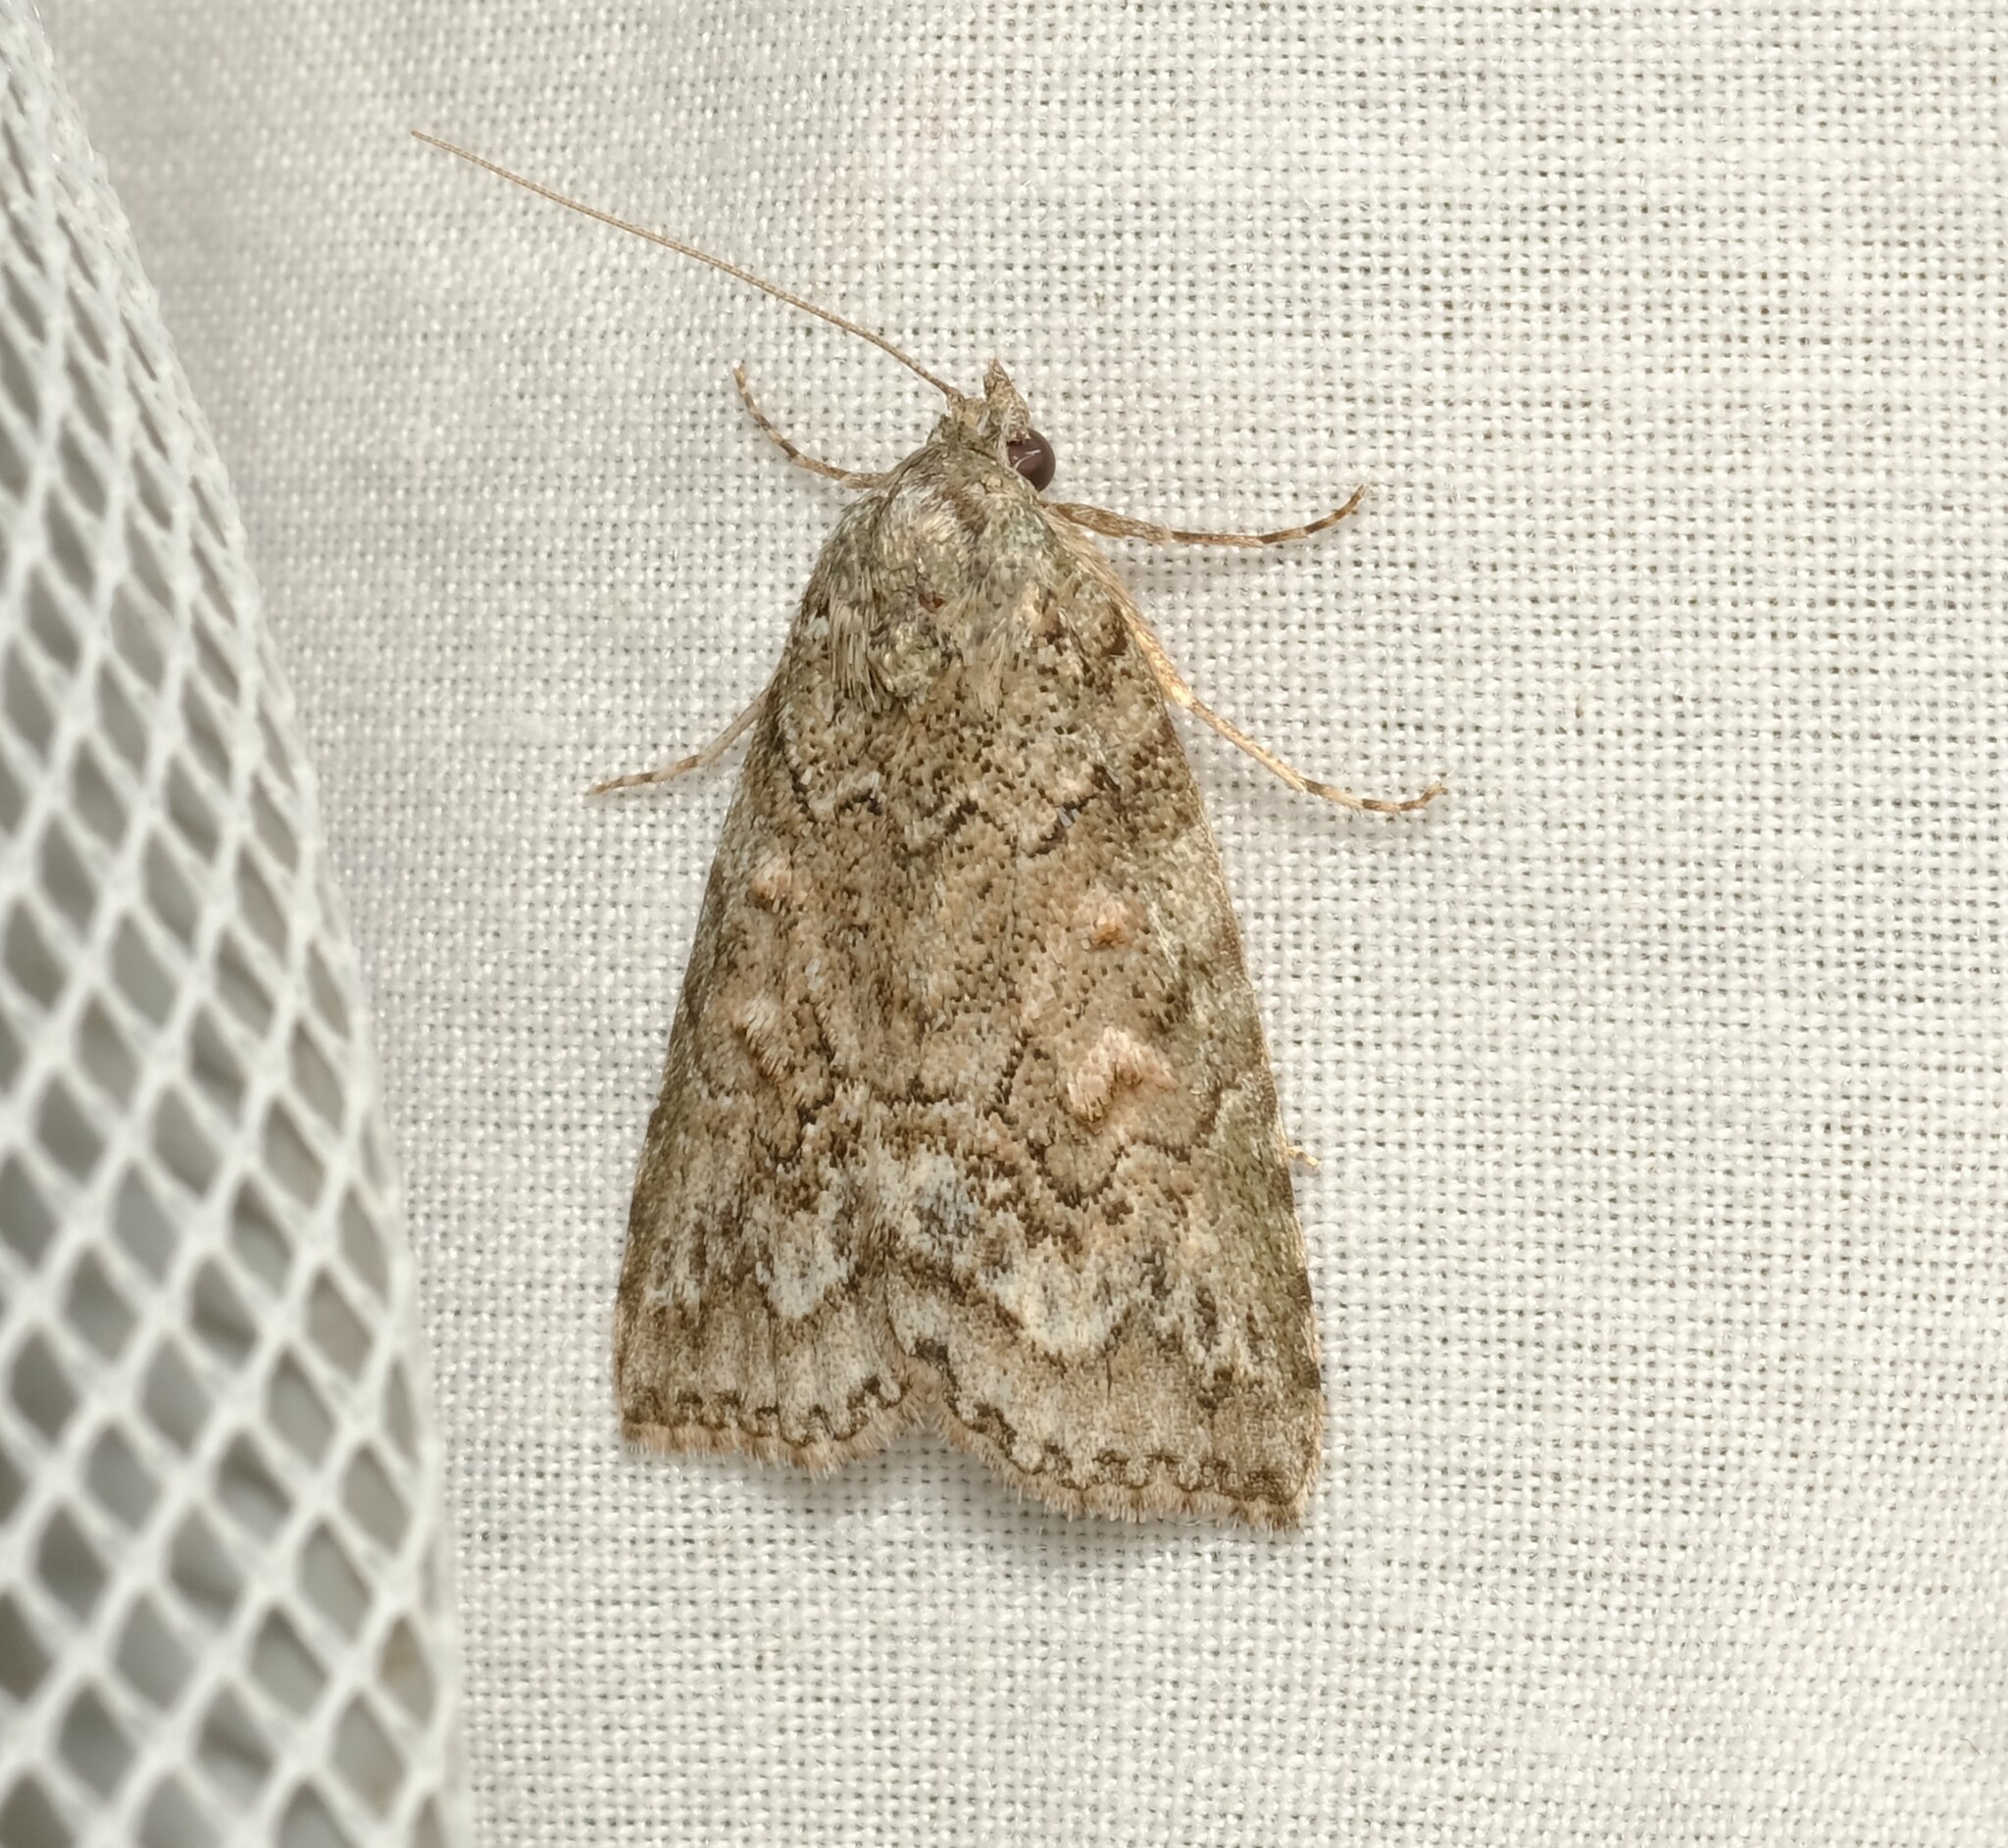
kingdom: Animalia
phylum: Arthropoda
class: Insecta
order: Lepidoptera
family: Nolidae
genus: Calathusa
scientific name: Calathusa basicunea
